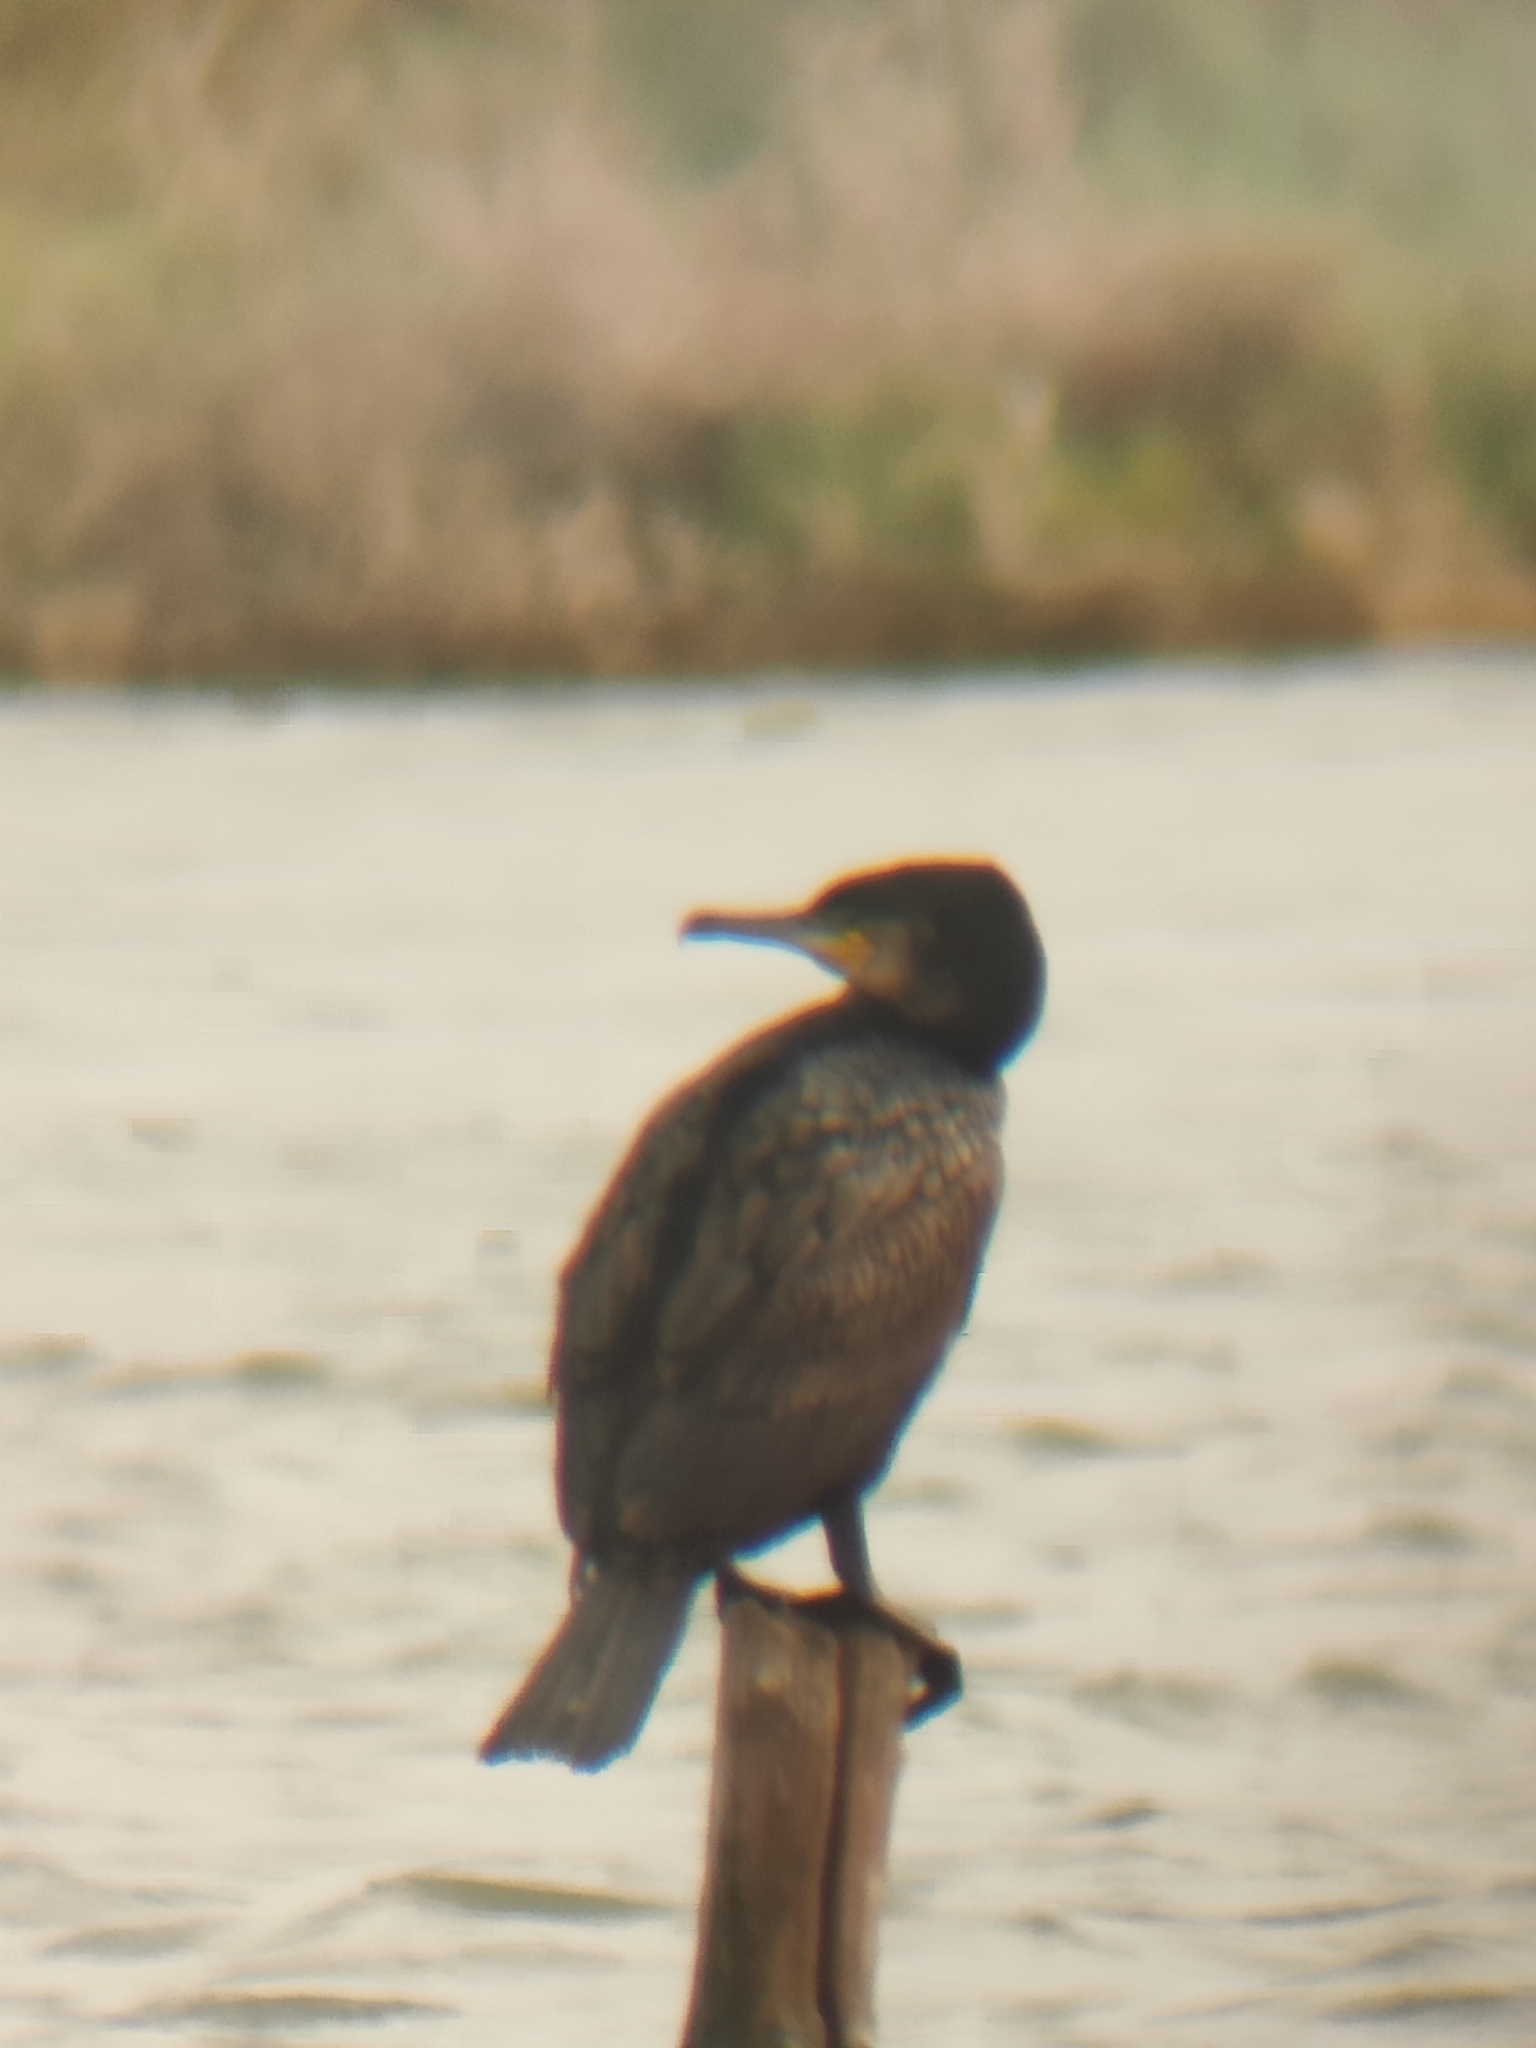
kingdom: Animalia
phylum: Chordata
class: Aves
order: Suliformes
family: Phalacrocoracidae
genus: Phalacrocorax
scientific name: Phalacrocorax carbo
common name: Great cormorant
